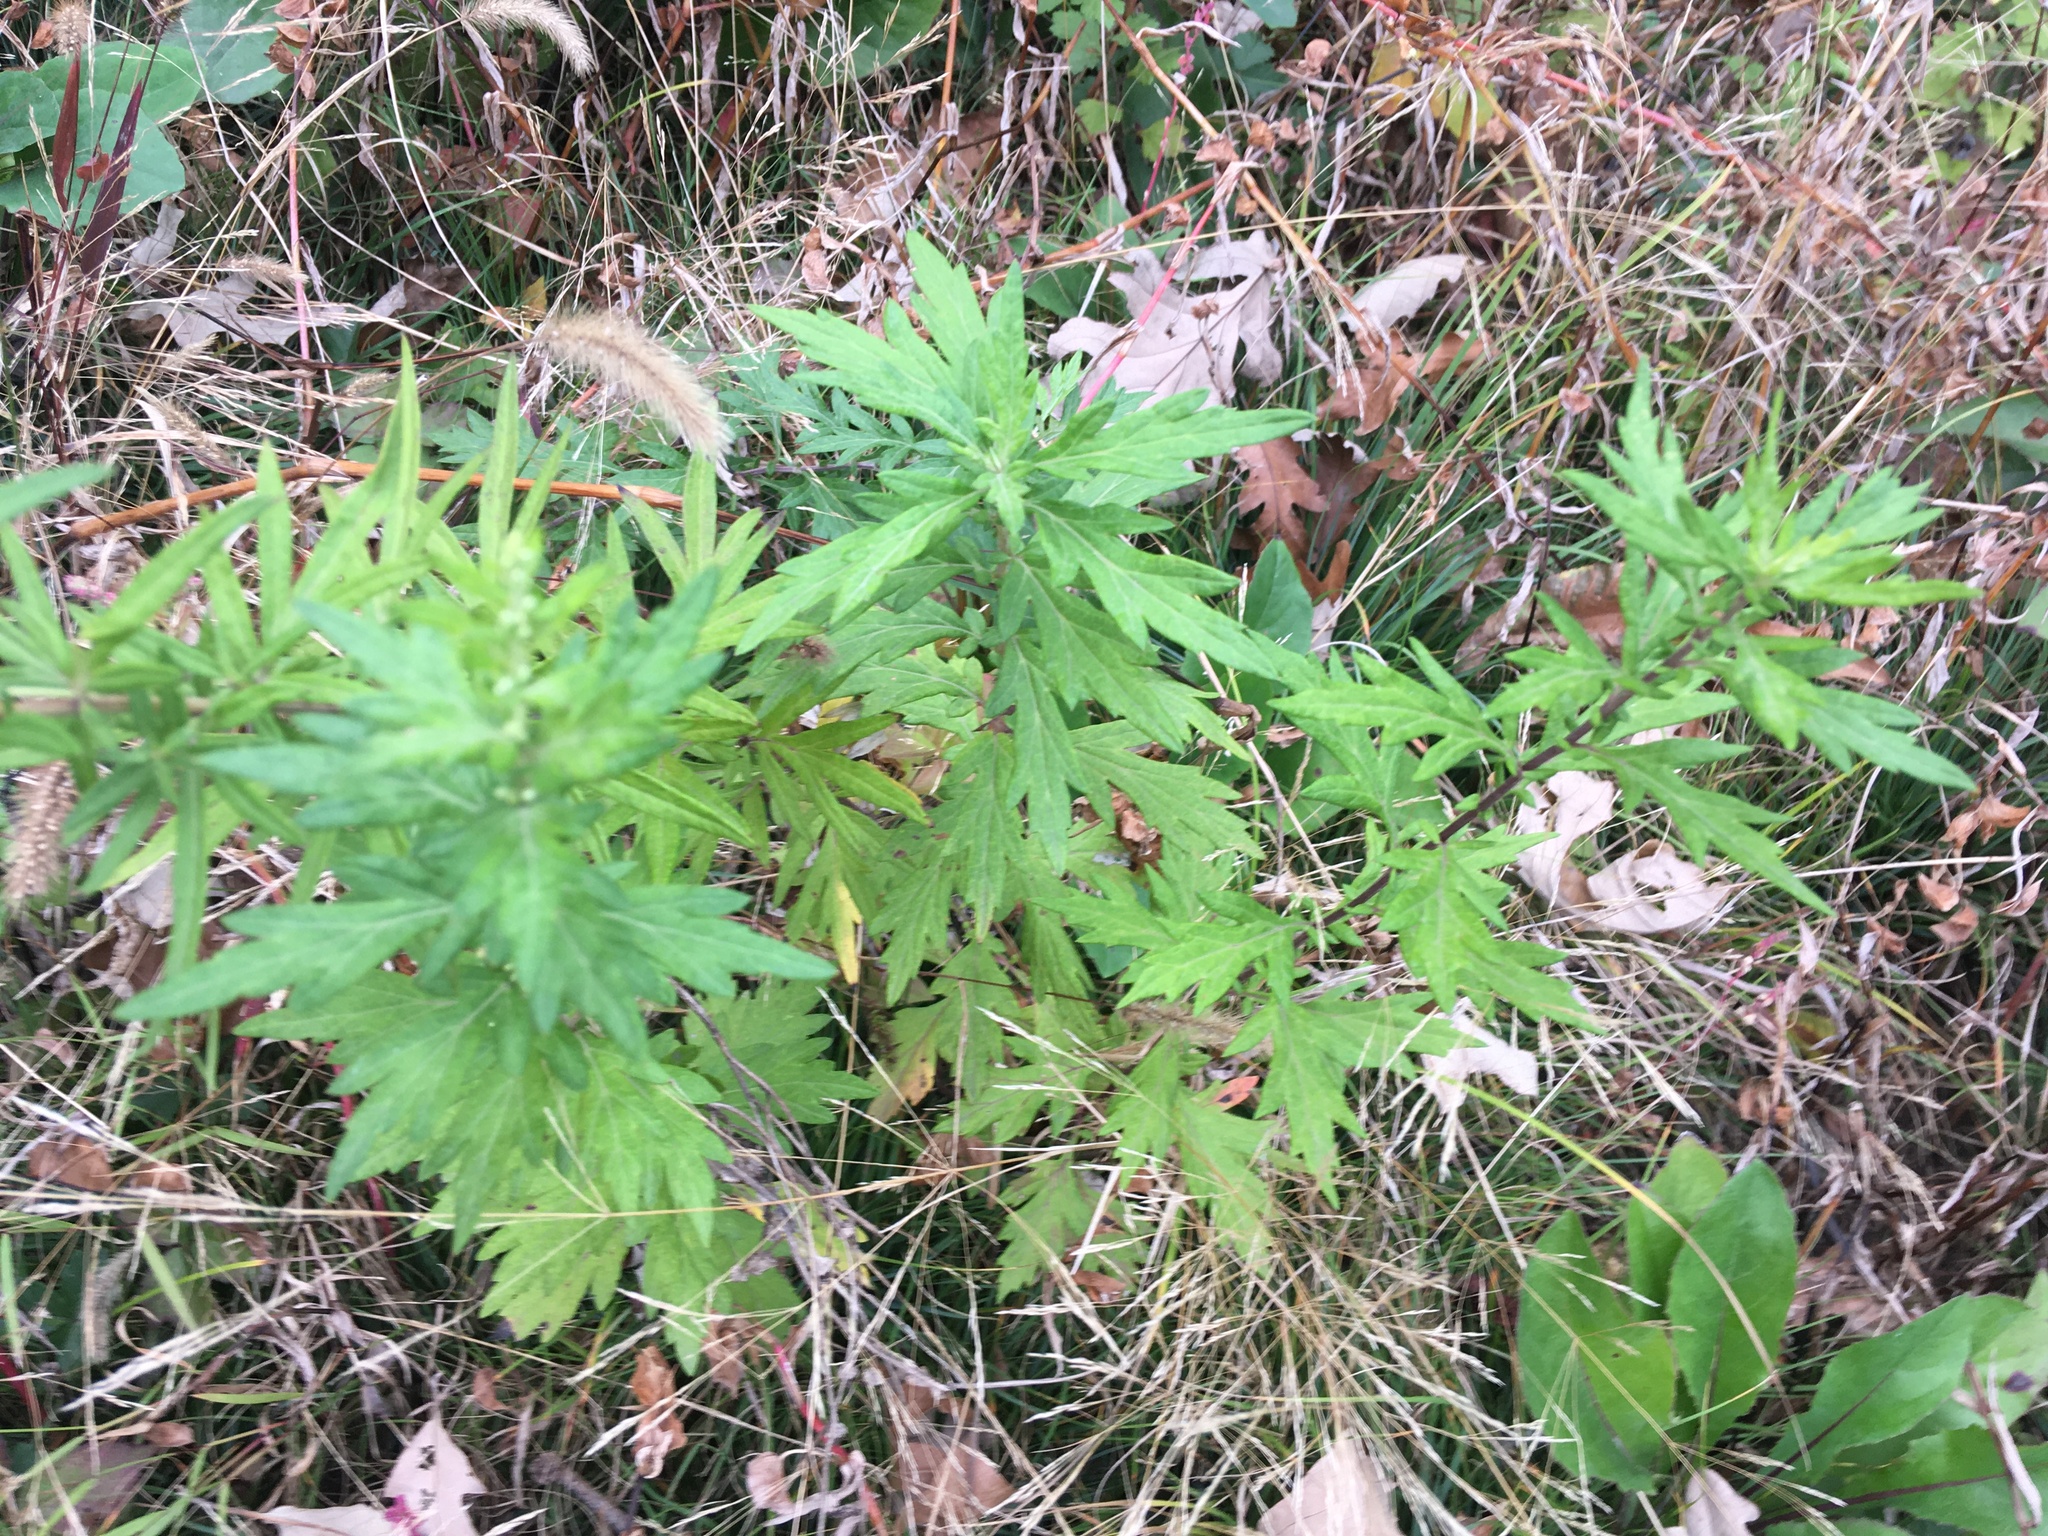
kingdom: Plantae
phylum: Tracheophyta
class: Magnoliopsida
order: Asterales
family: Asteraceae
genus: Artemisia
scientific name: Artemisia vulgaris
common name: Mugwort
